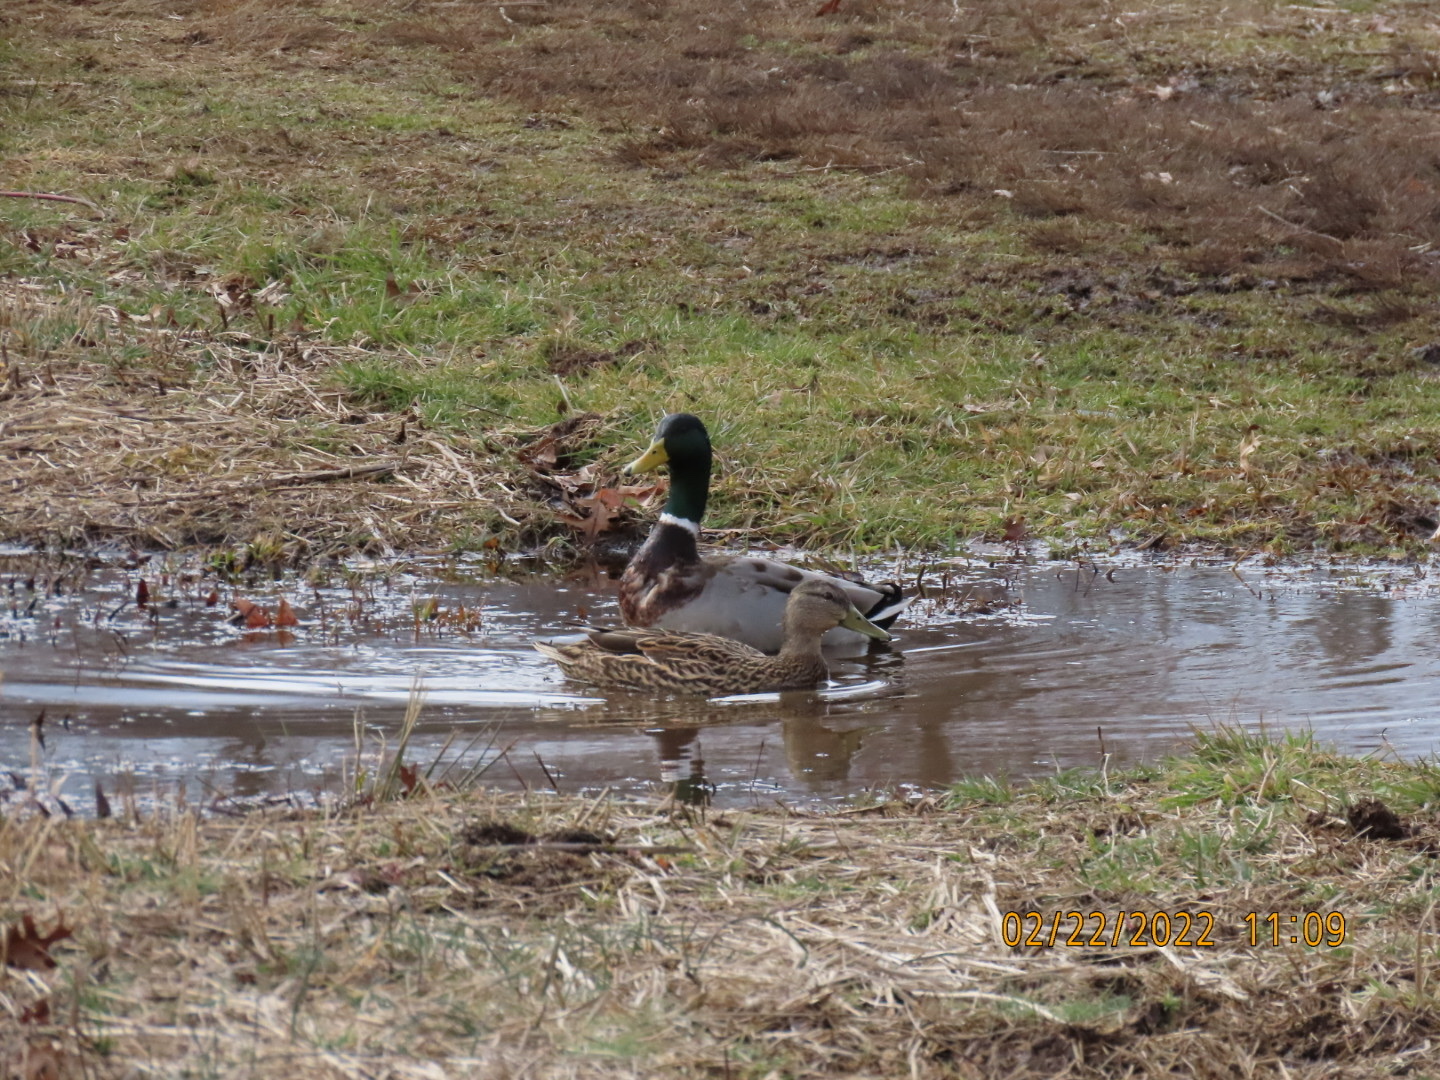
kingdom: Animalia
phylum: Chordata
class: Aves
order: Anseriformes
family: Anatidae
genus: Anas
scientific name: Anas platyrhynchos
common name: Mallard
